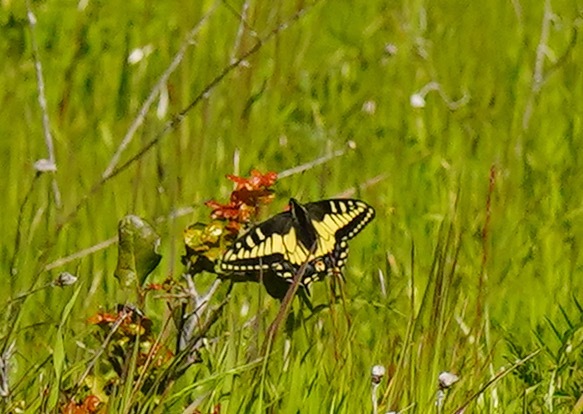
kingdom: Animalia
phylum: Arthropoda
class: Insecta
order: Lepidoptera
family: Papilionidae
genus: Papilio
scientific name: Papilio zelicaon
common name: Anise swallowtail
